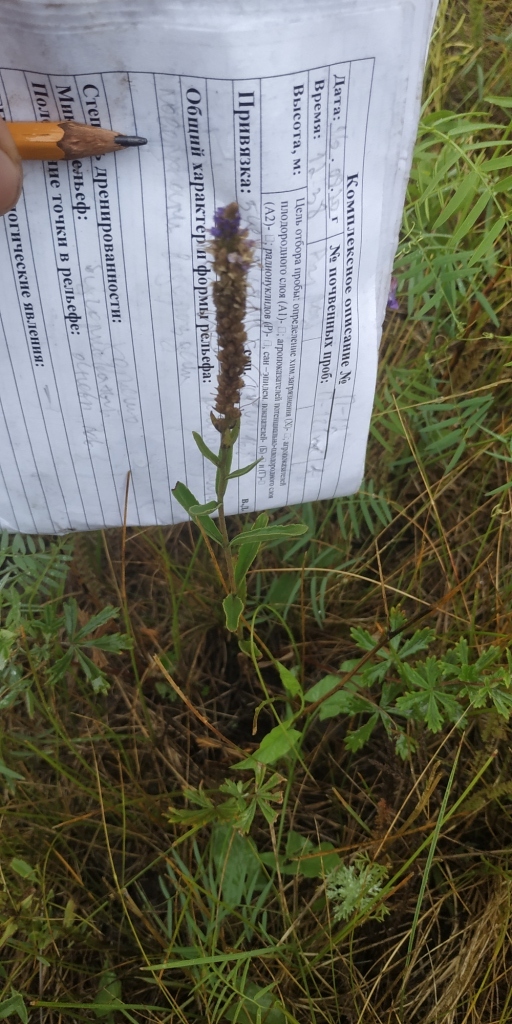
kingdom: Plantae
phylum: Tracheophyta
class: Magnoliopsida
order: Lamiales
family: Plantaginaceae
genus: Veronica
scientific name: Veronica spicata
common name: Spiked speedwell
